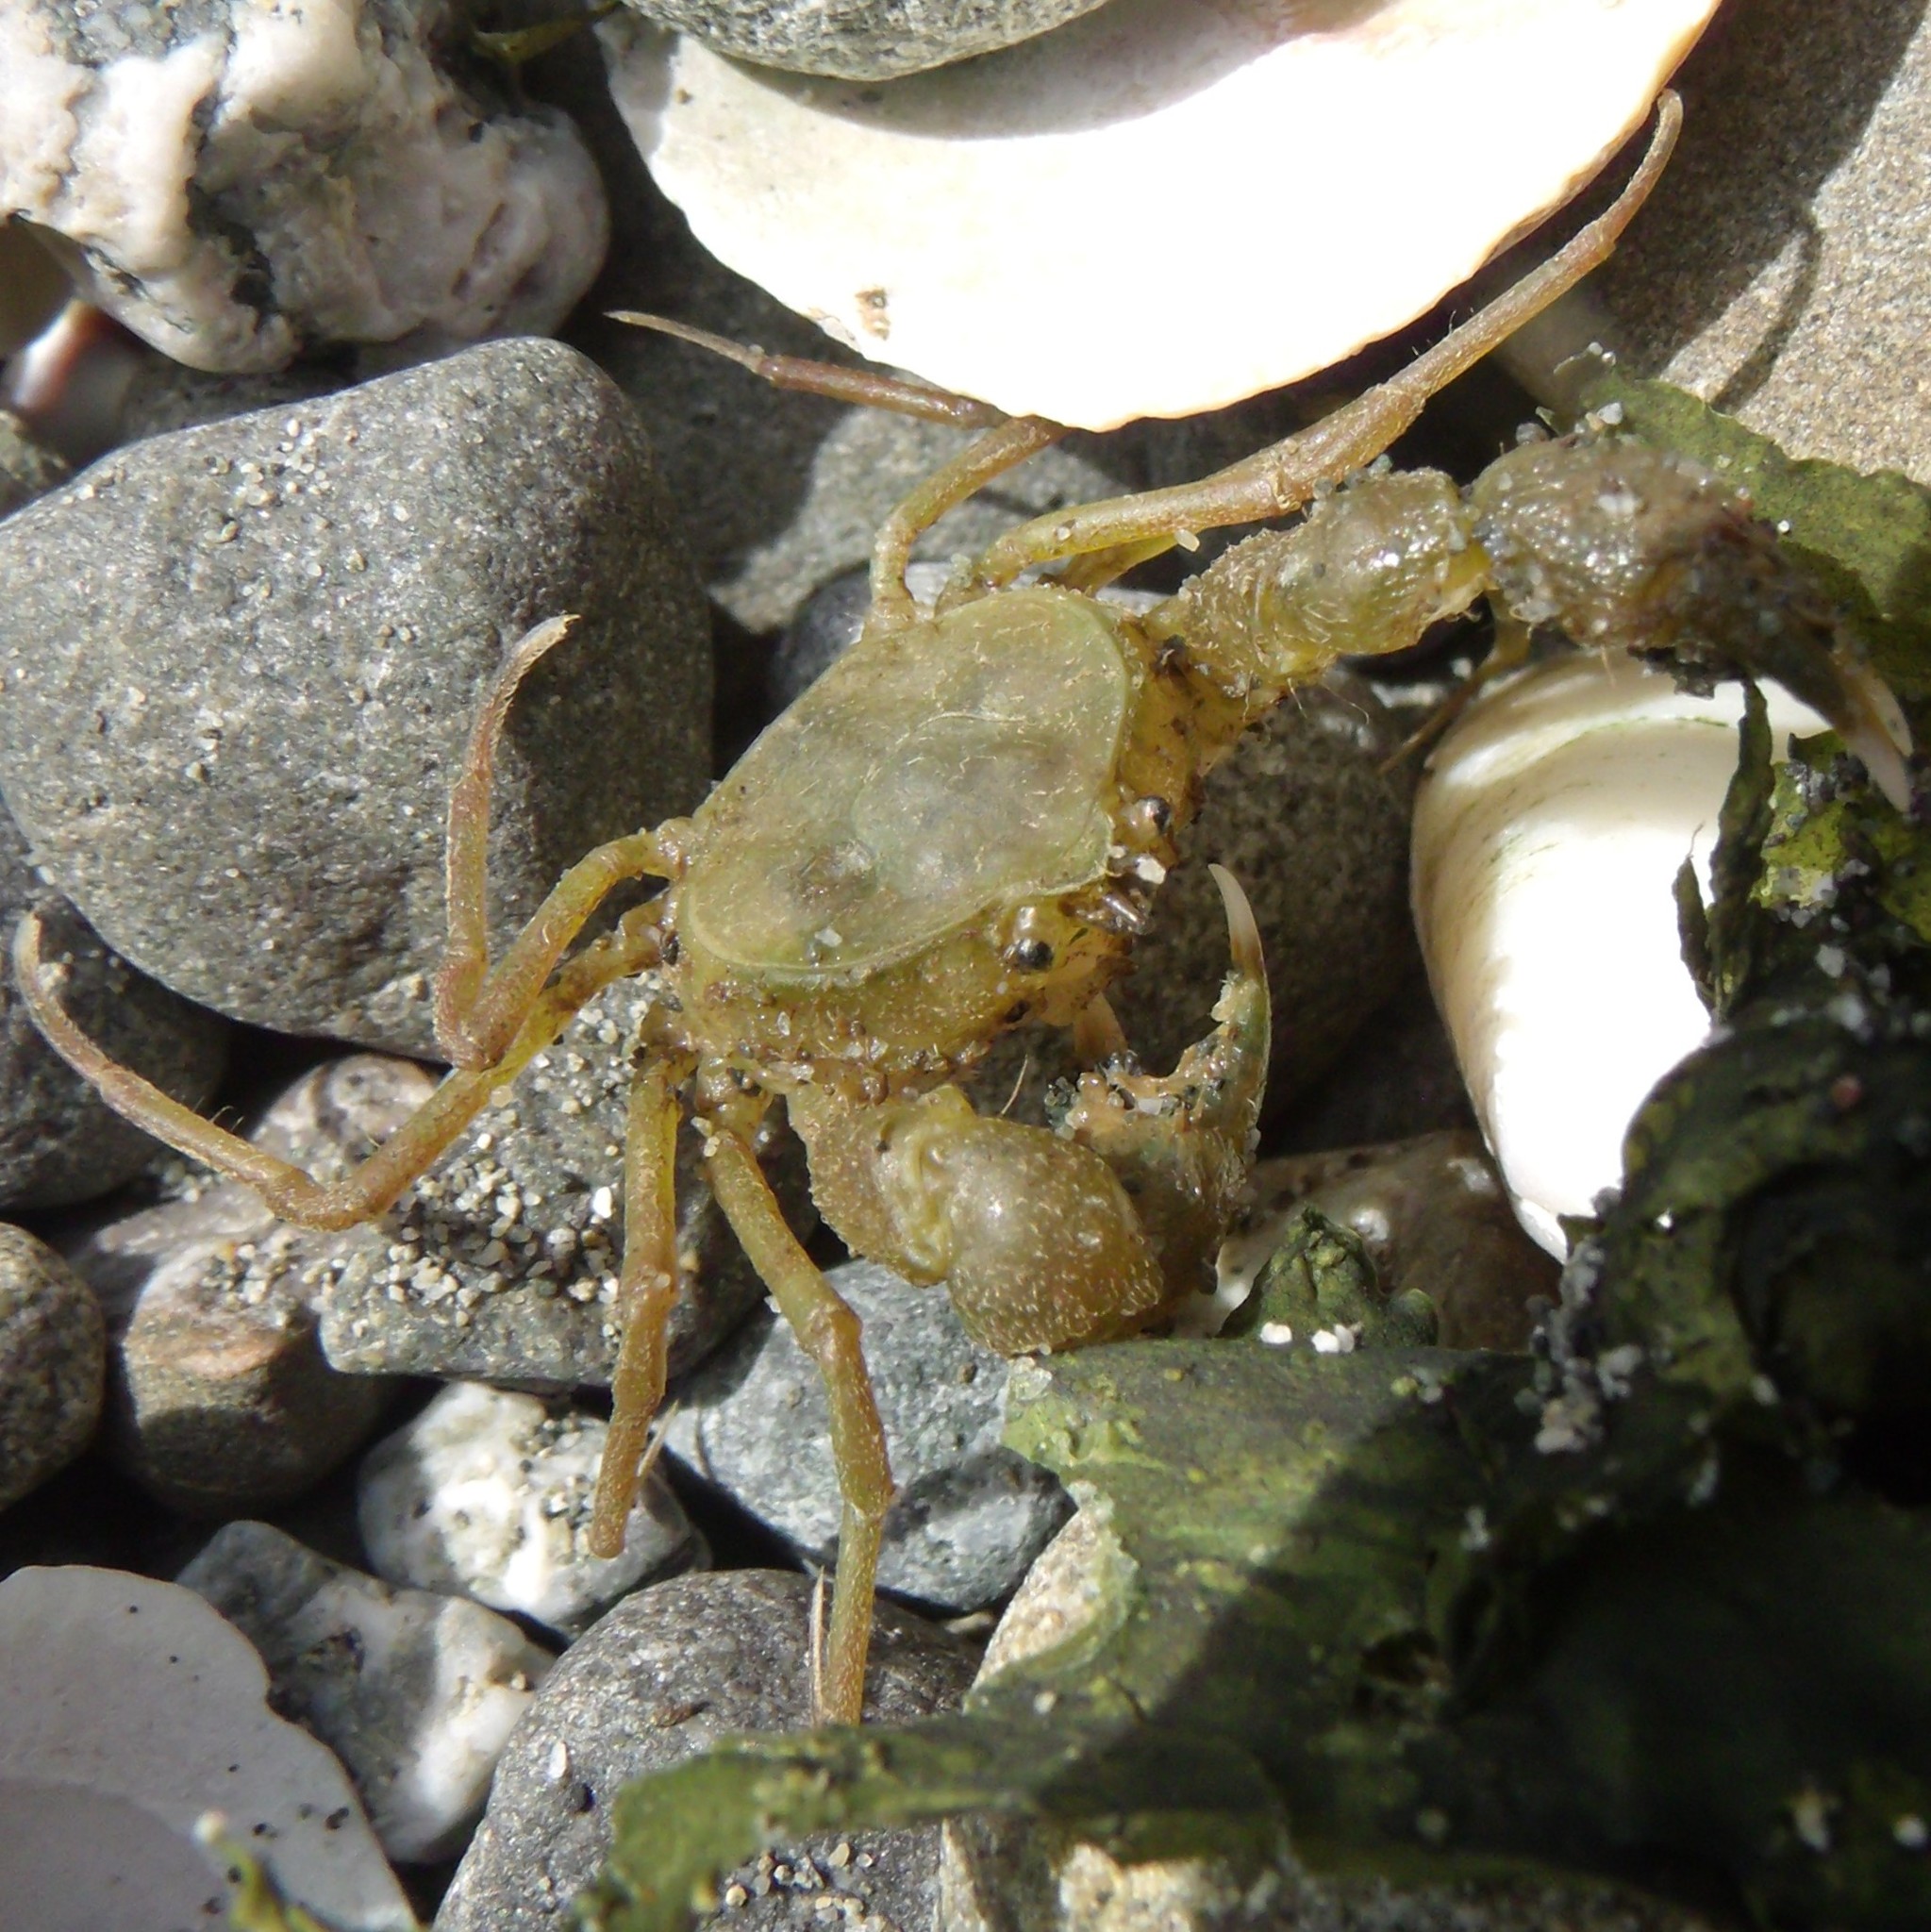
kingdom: Animalia
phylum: Arthropoda
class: Malacostraca
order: Decapoda
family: Hymenosomatidae
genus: Halicarcinus
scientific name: Halicarcinus varius
